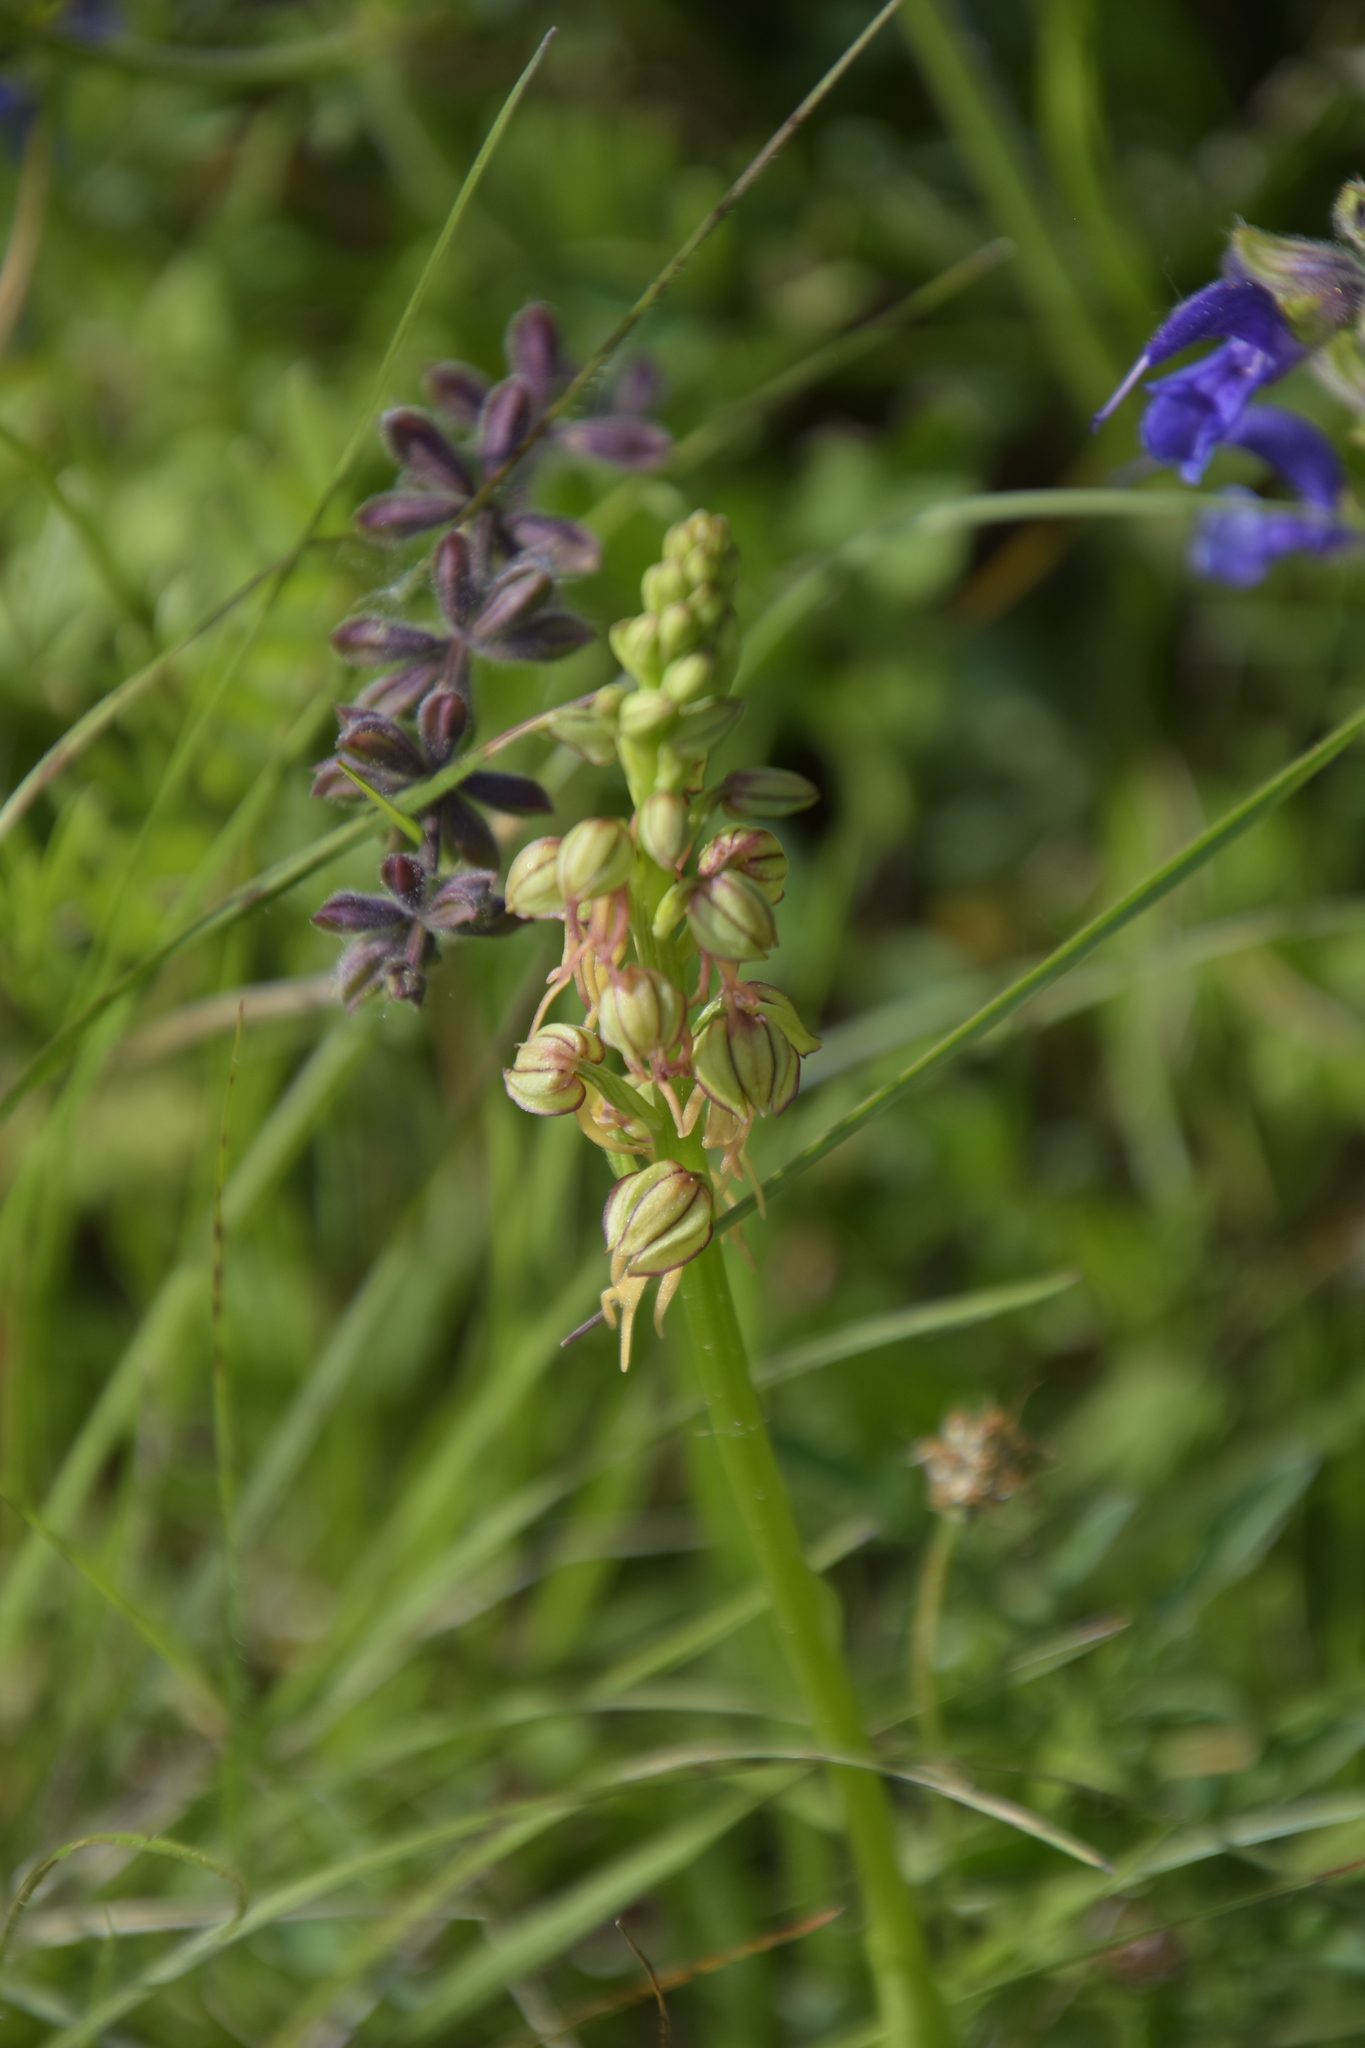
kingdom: Plantae
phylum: Tracheophyta
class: Liliopsida
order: Asparagales
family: Orchidaceae
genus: Orchis
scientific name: Orchis anthropophora
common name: Man orchid
